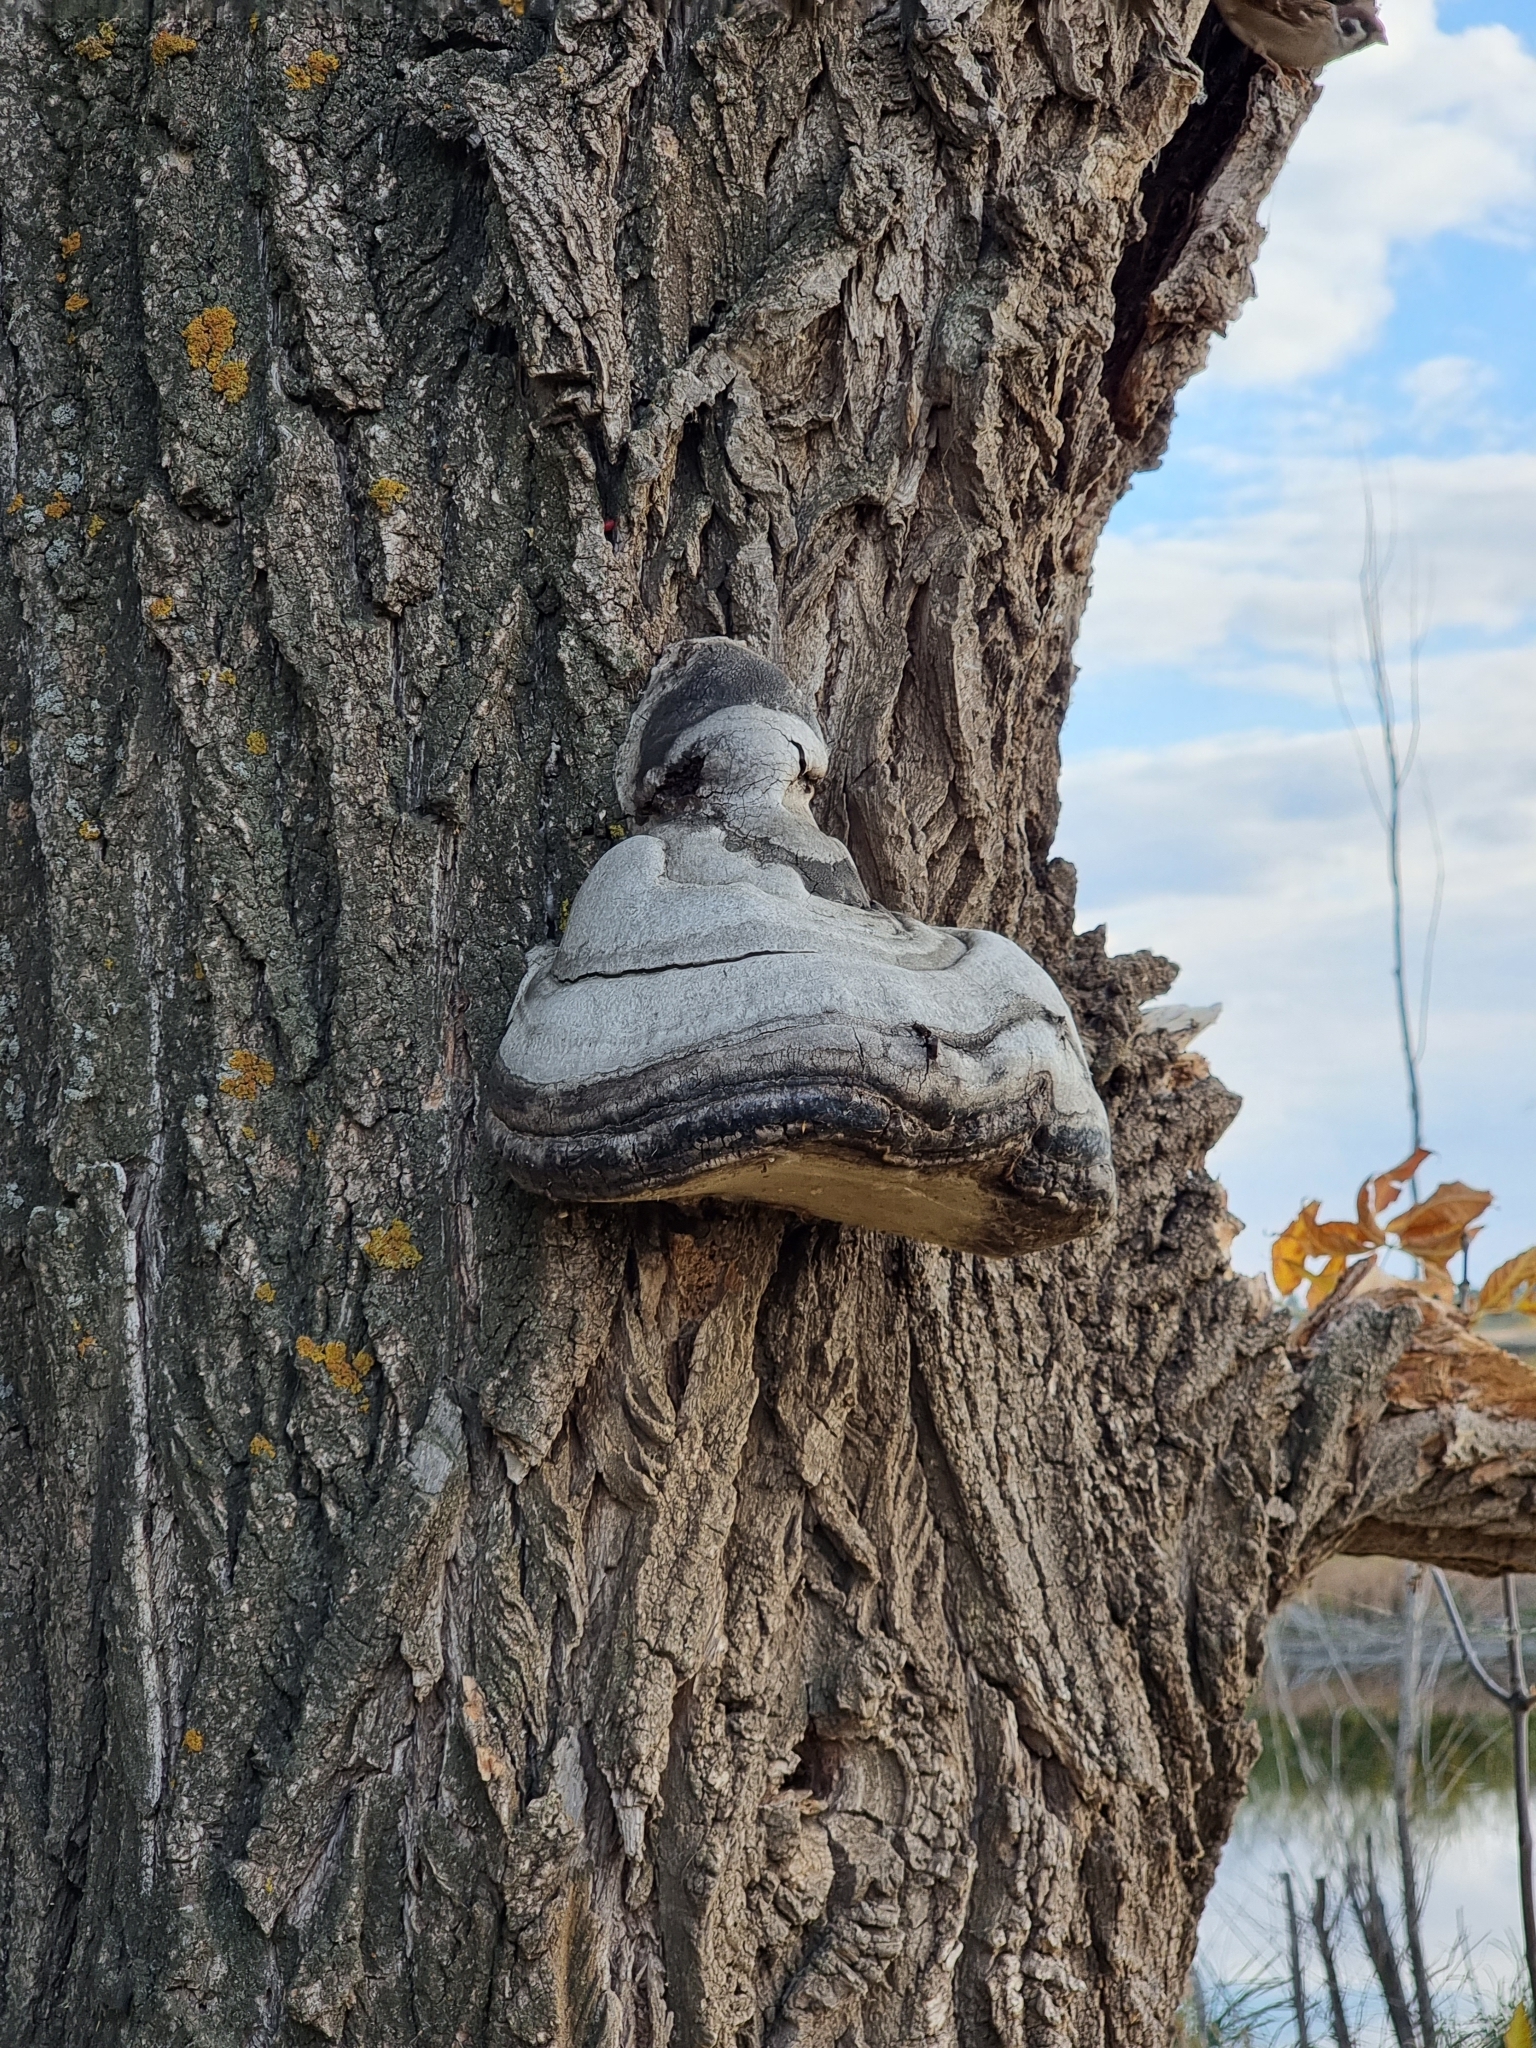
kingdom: Fungi
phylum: Basidiomycota
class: Agaricomycetes
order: Polyporales
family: Polyporaceae
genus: Fomes
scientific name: Fomes fomentarius
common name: Hoof fungus
